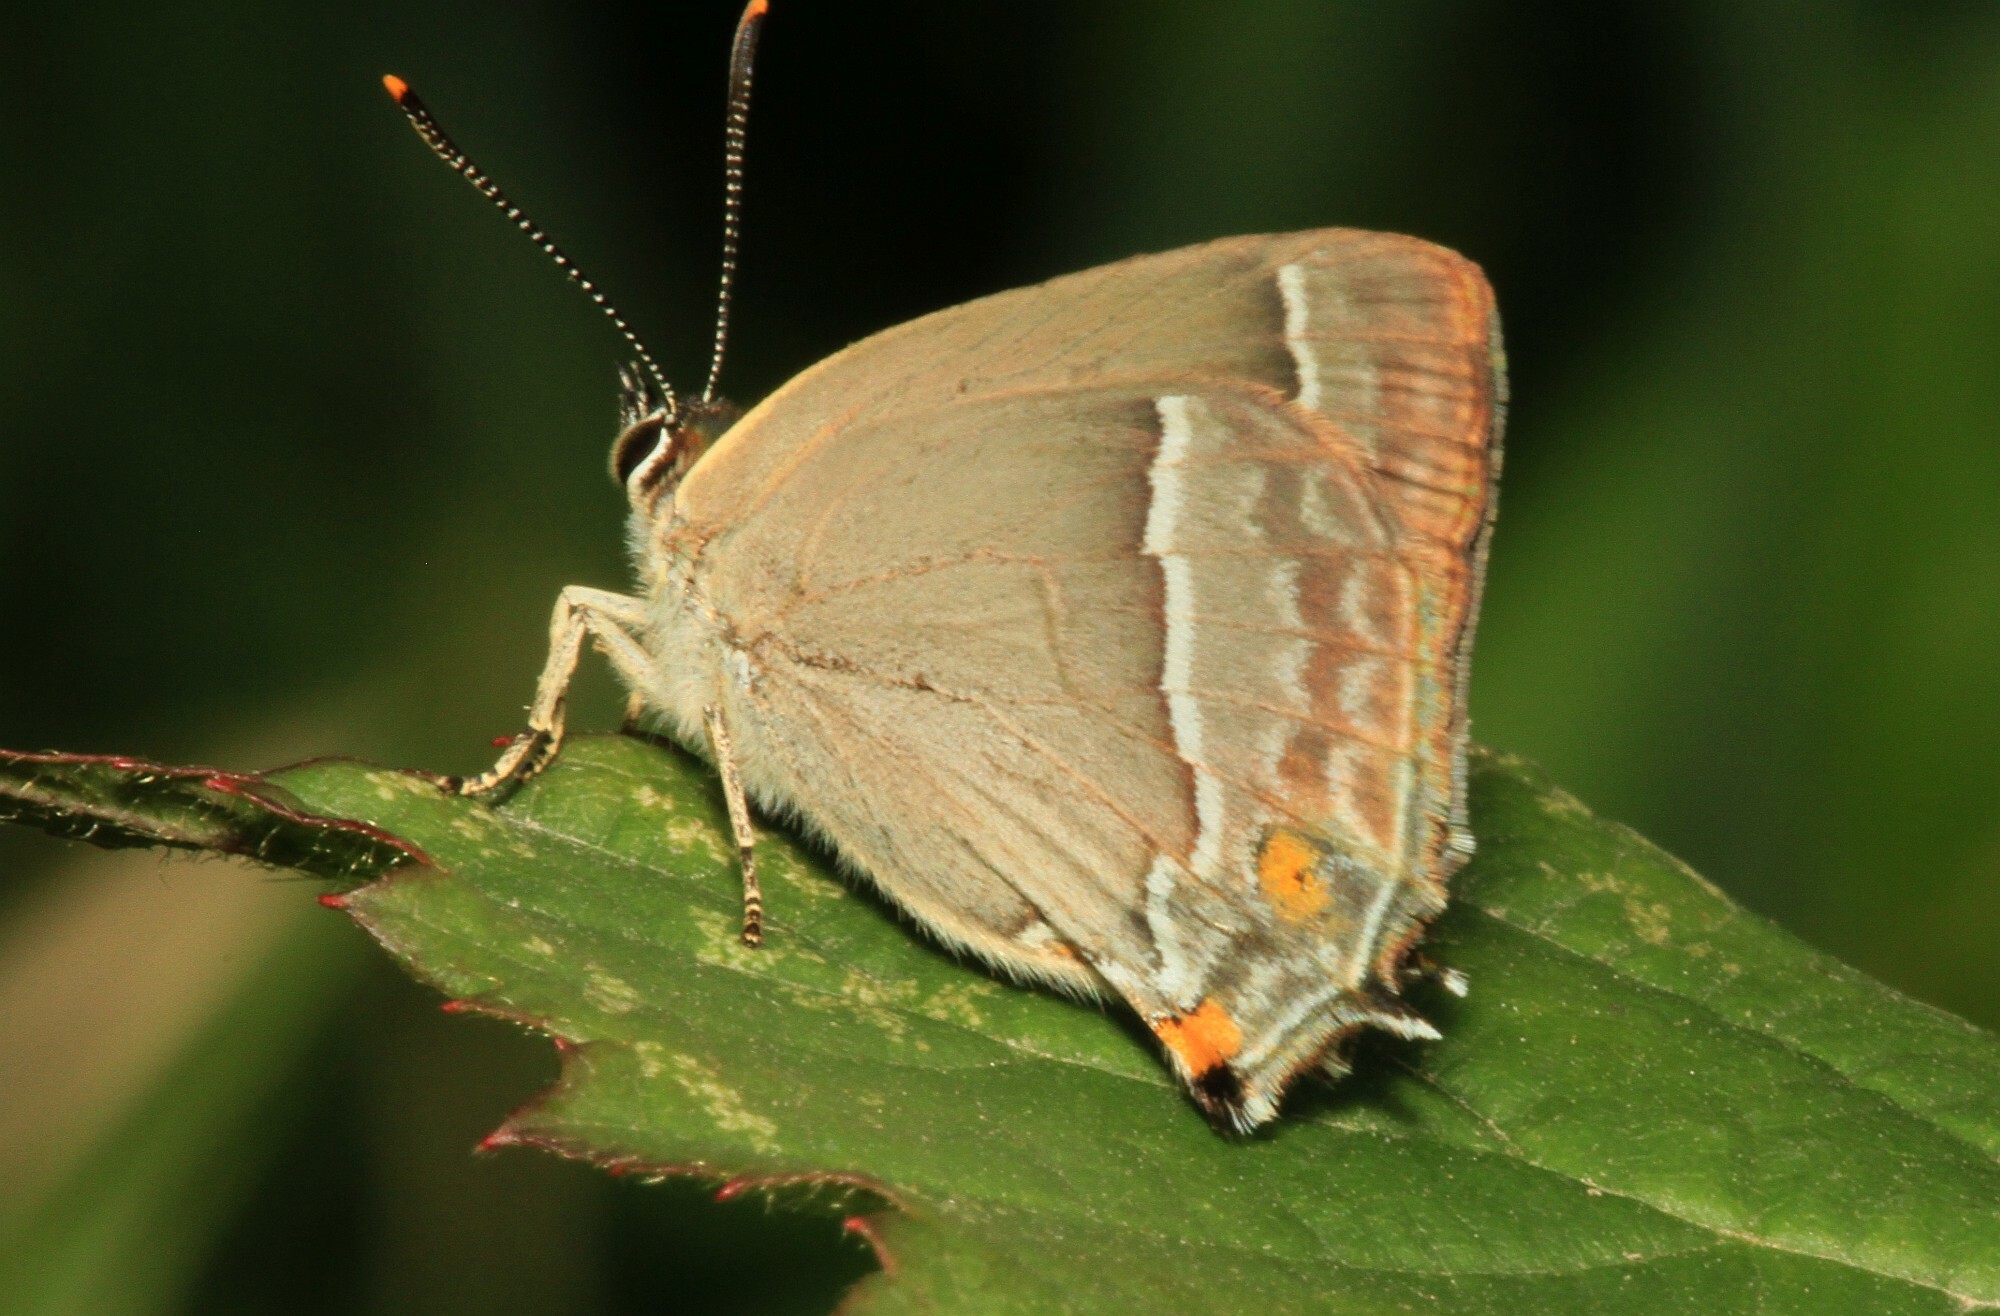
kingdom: Animalia
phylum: Arthropoda
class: Insecta
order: Lepidoptera
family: Lycaenidae
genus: Quercusia
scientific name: Quercusia quercus
